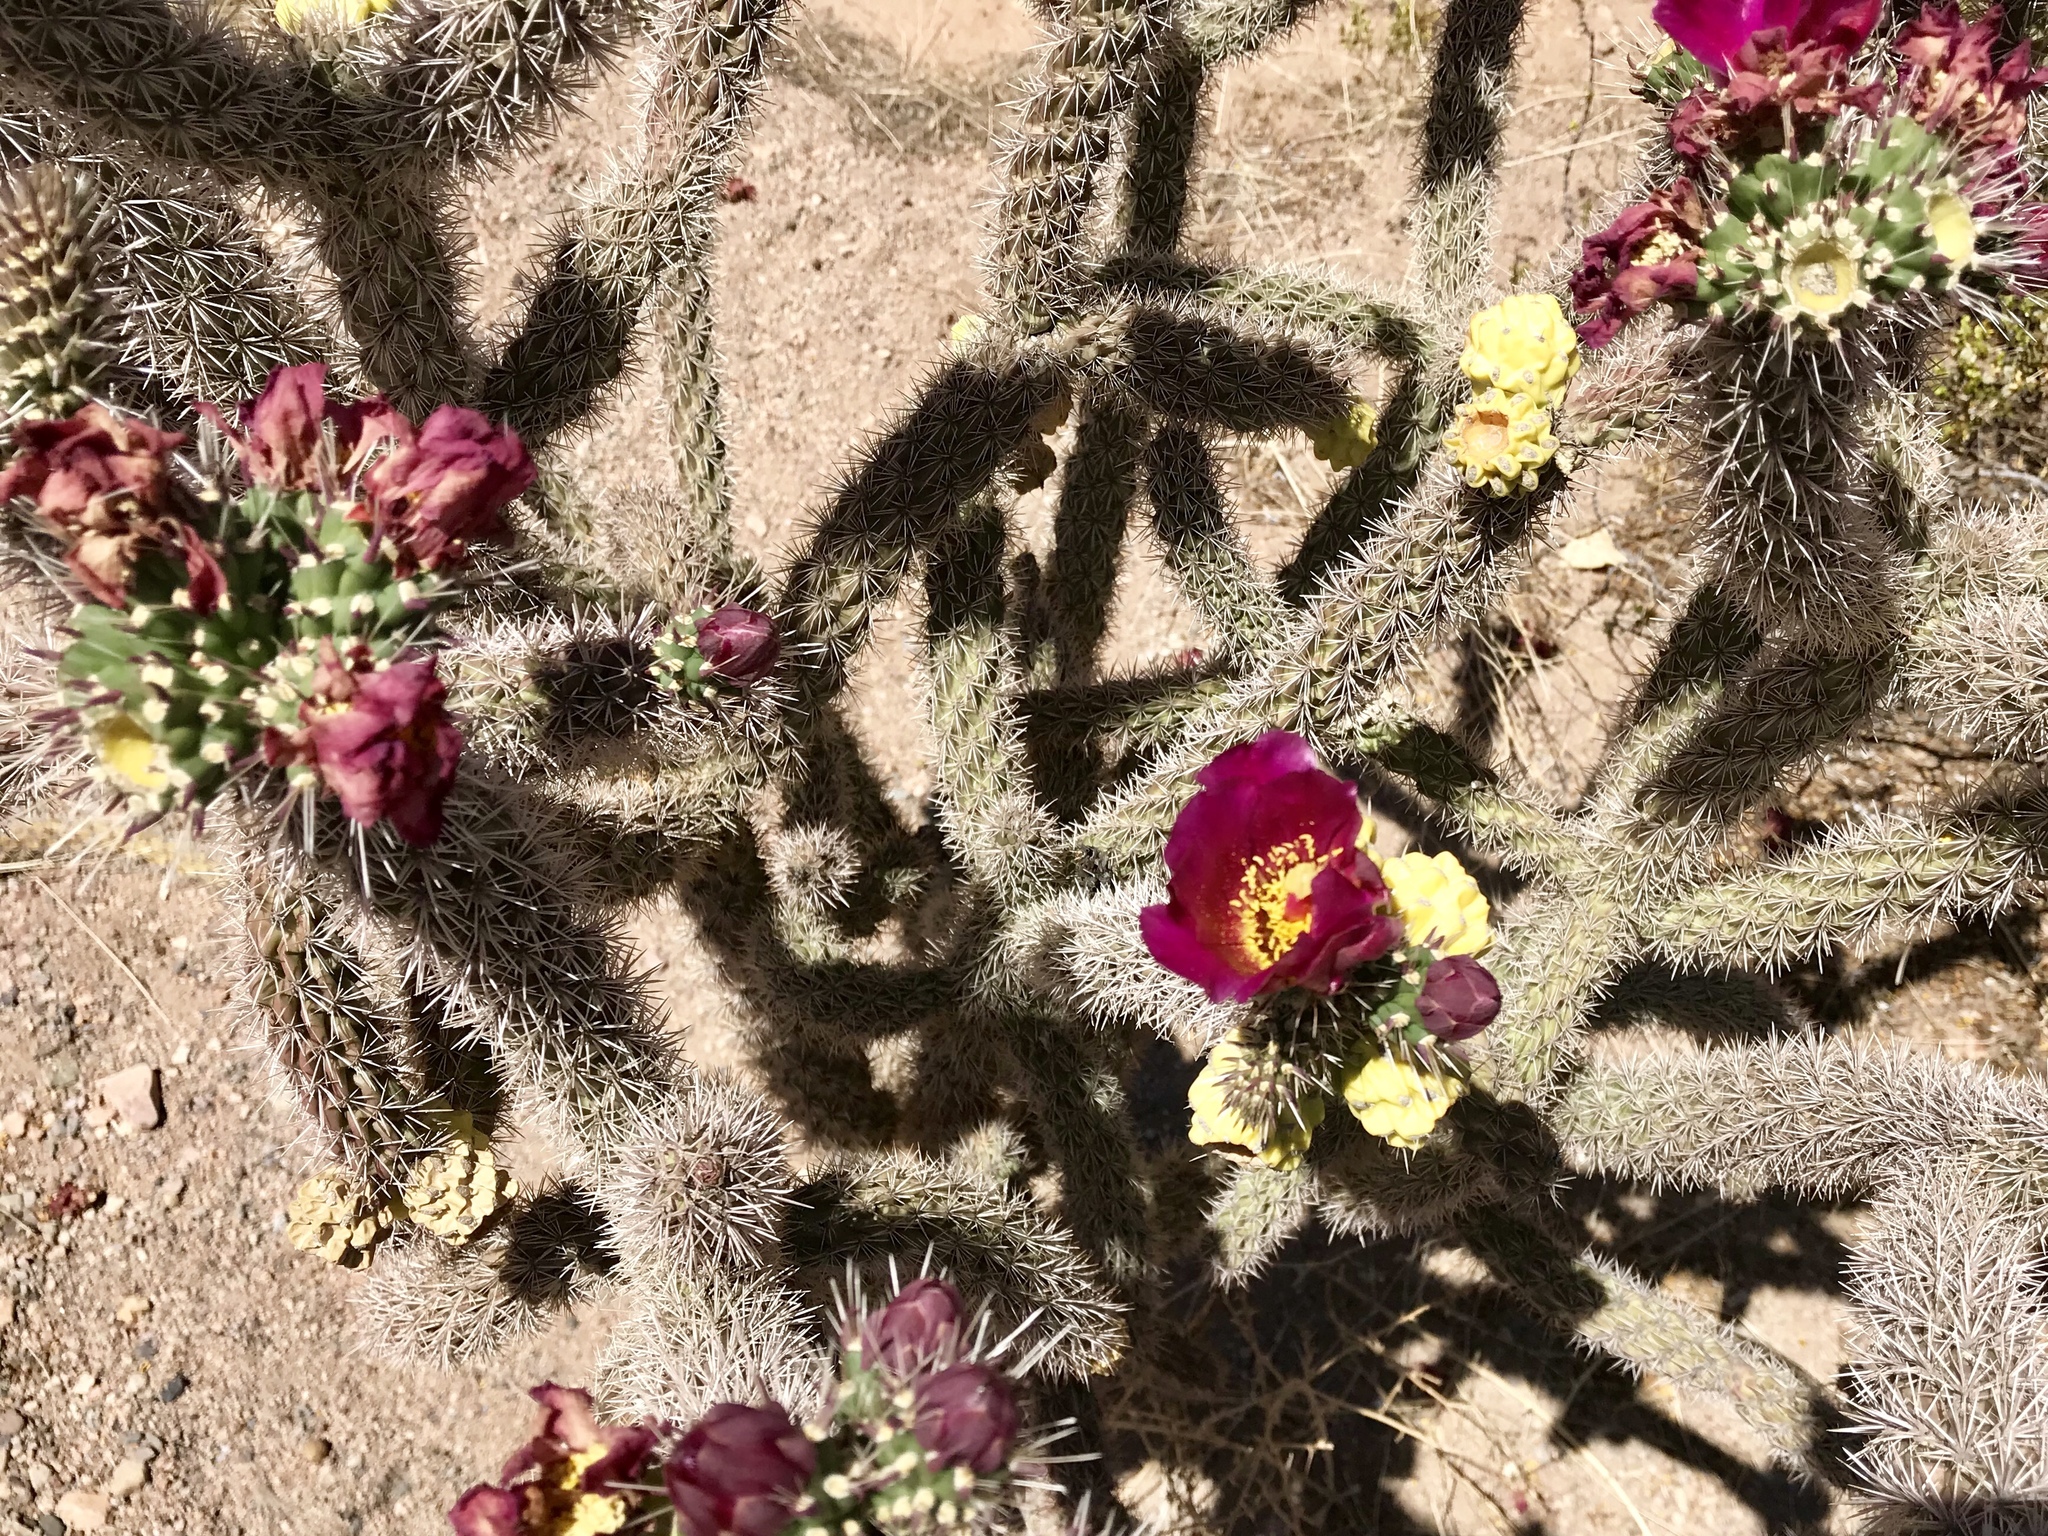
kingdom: Plantae
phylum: Tracheophyta
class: Magnoliopsida
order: Caryophyllales
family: Cactaceae
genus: Cylindropuntia
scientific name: Cylindropuntia imbricata
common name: Candelabrum cactus
